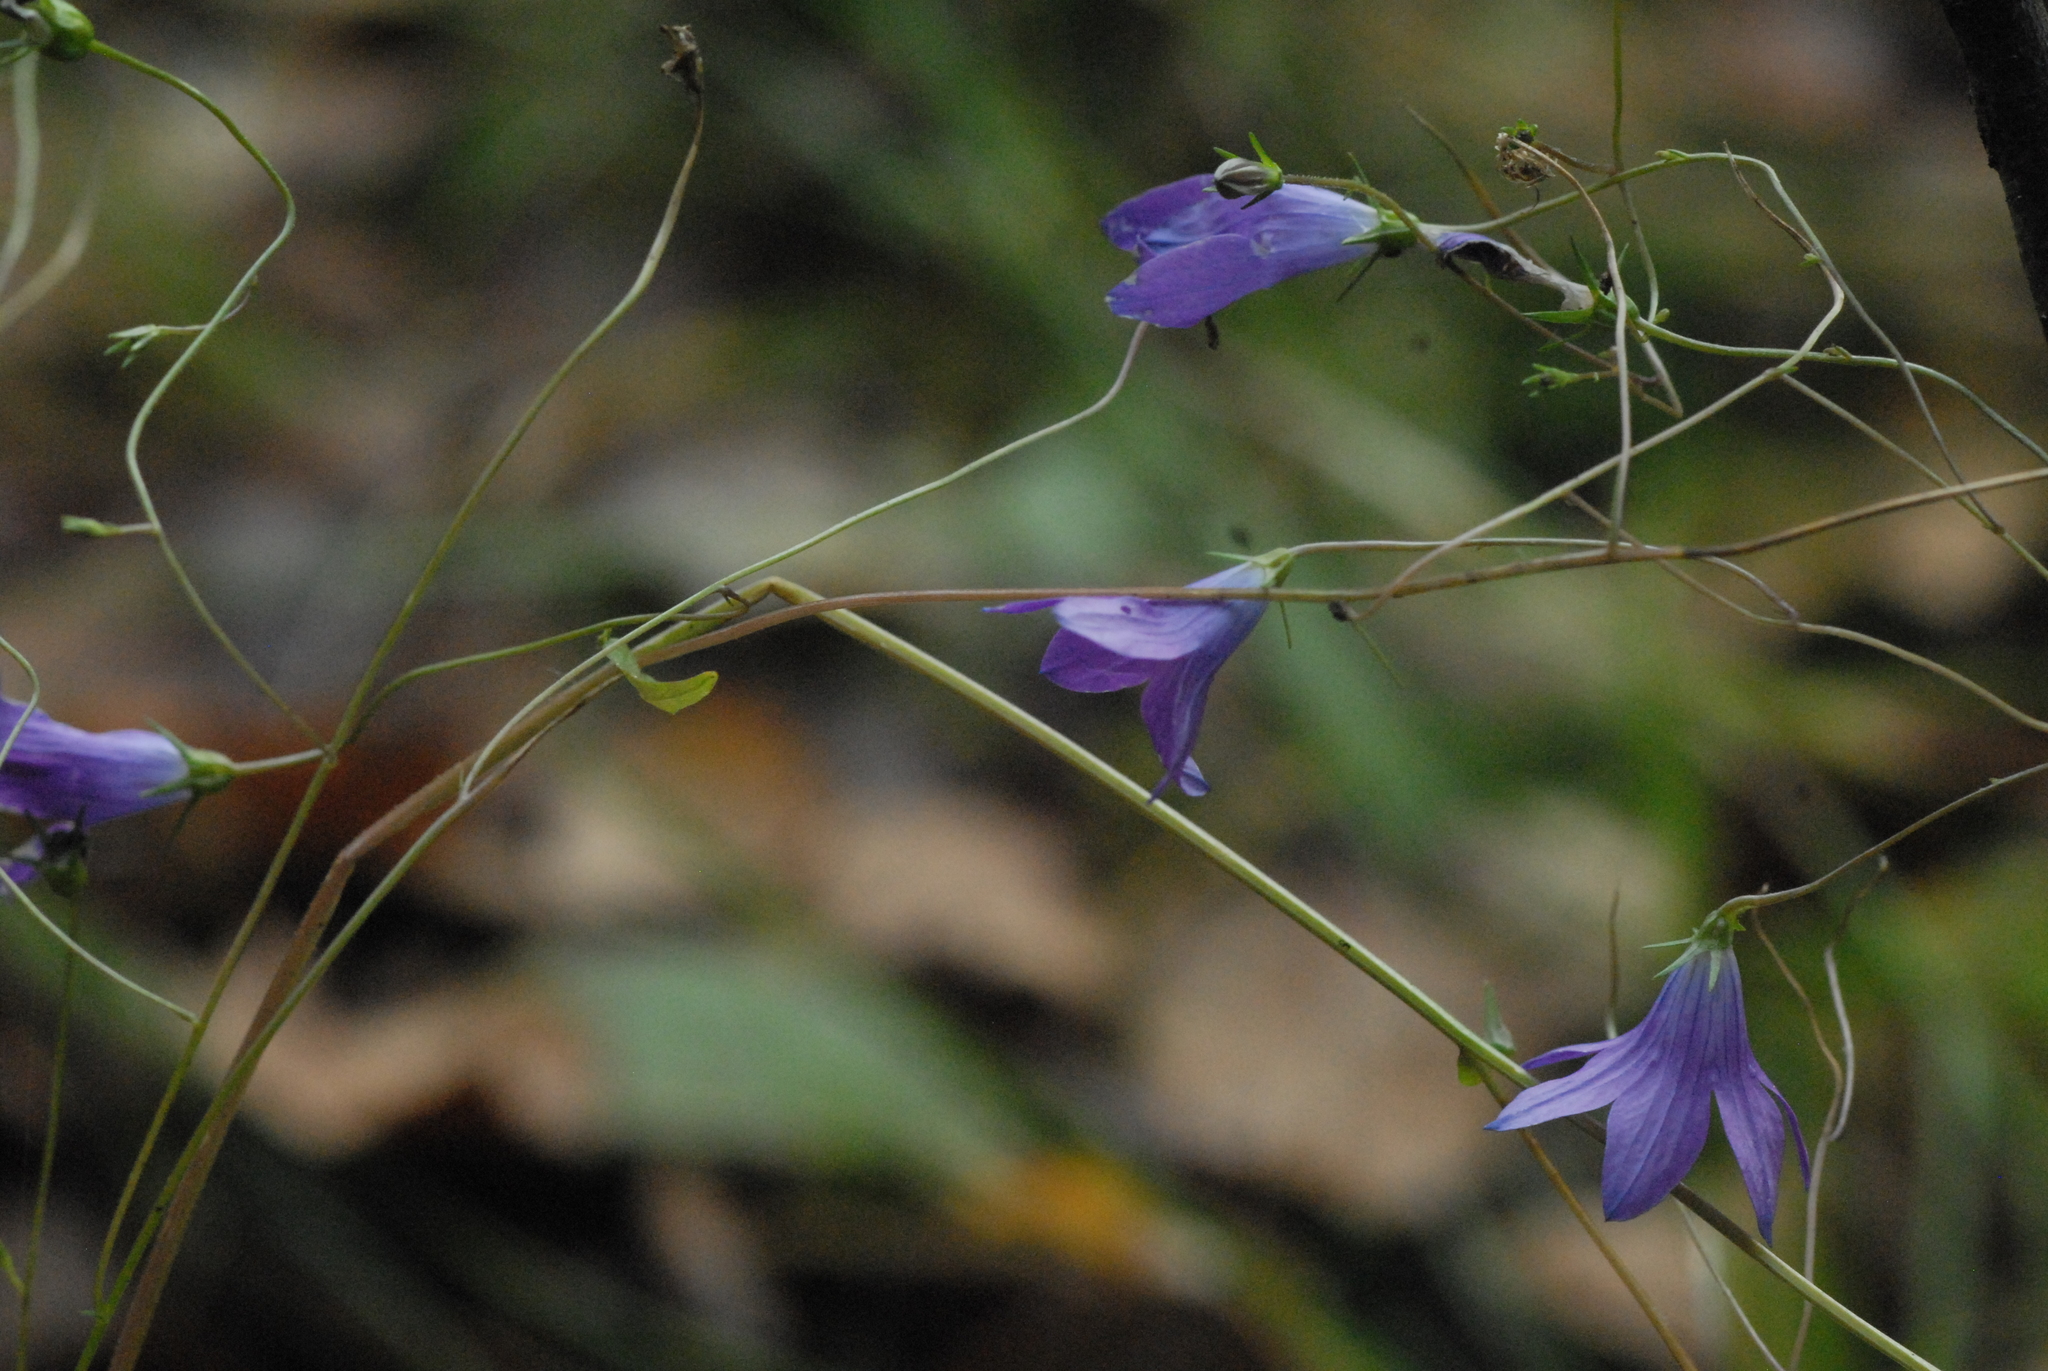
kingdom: Plantae
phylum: Tracheophyta
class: Magnoliopsida
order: Asterales
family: Campanulaceae
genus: Campanula
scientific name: Campanula patula
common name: Spreading bellflower
